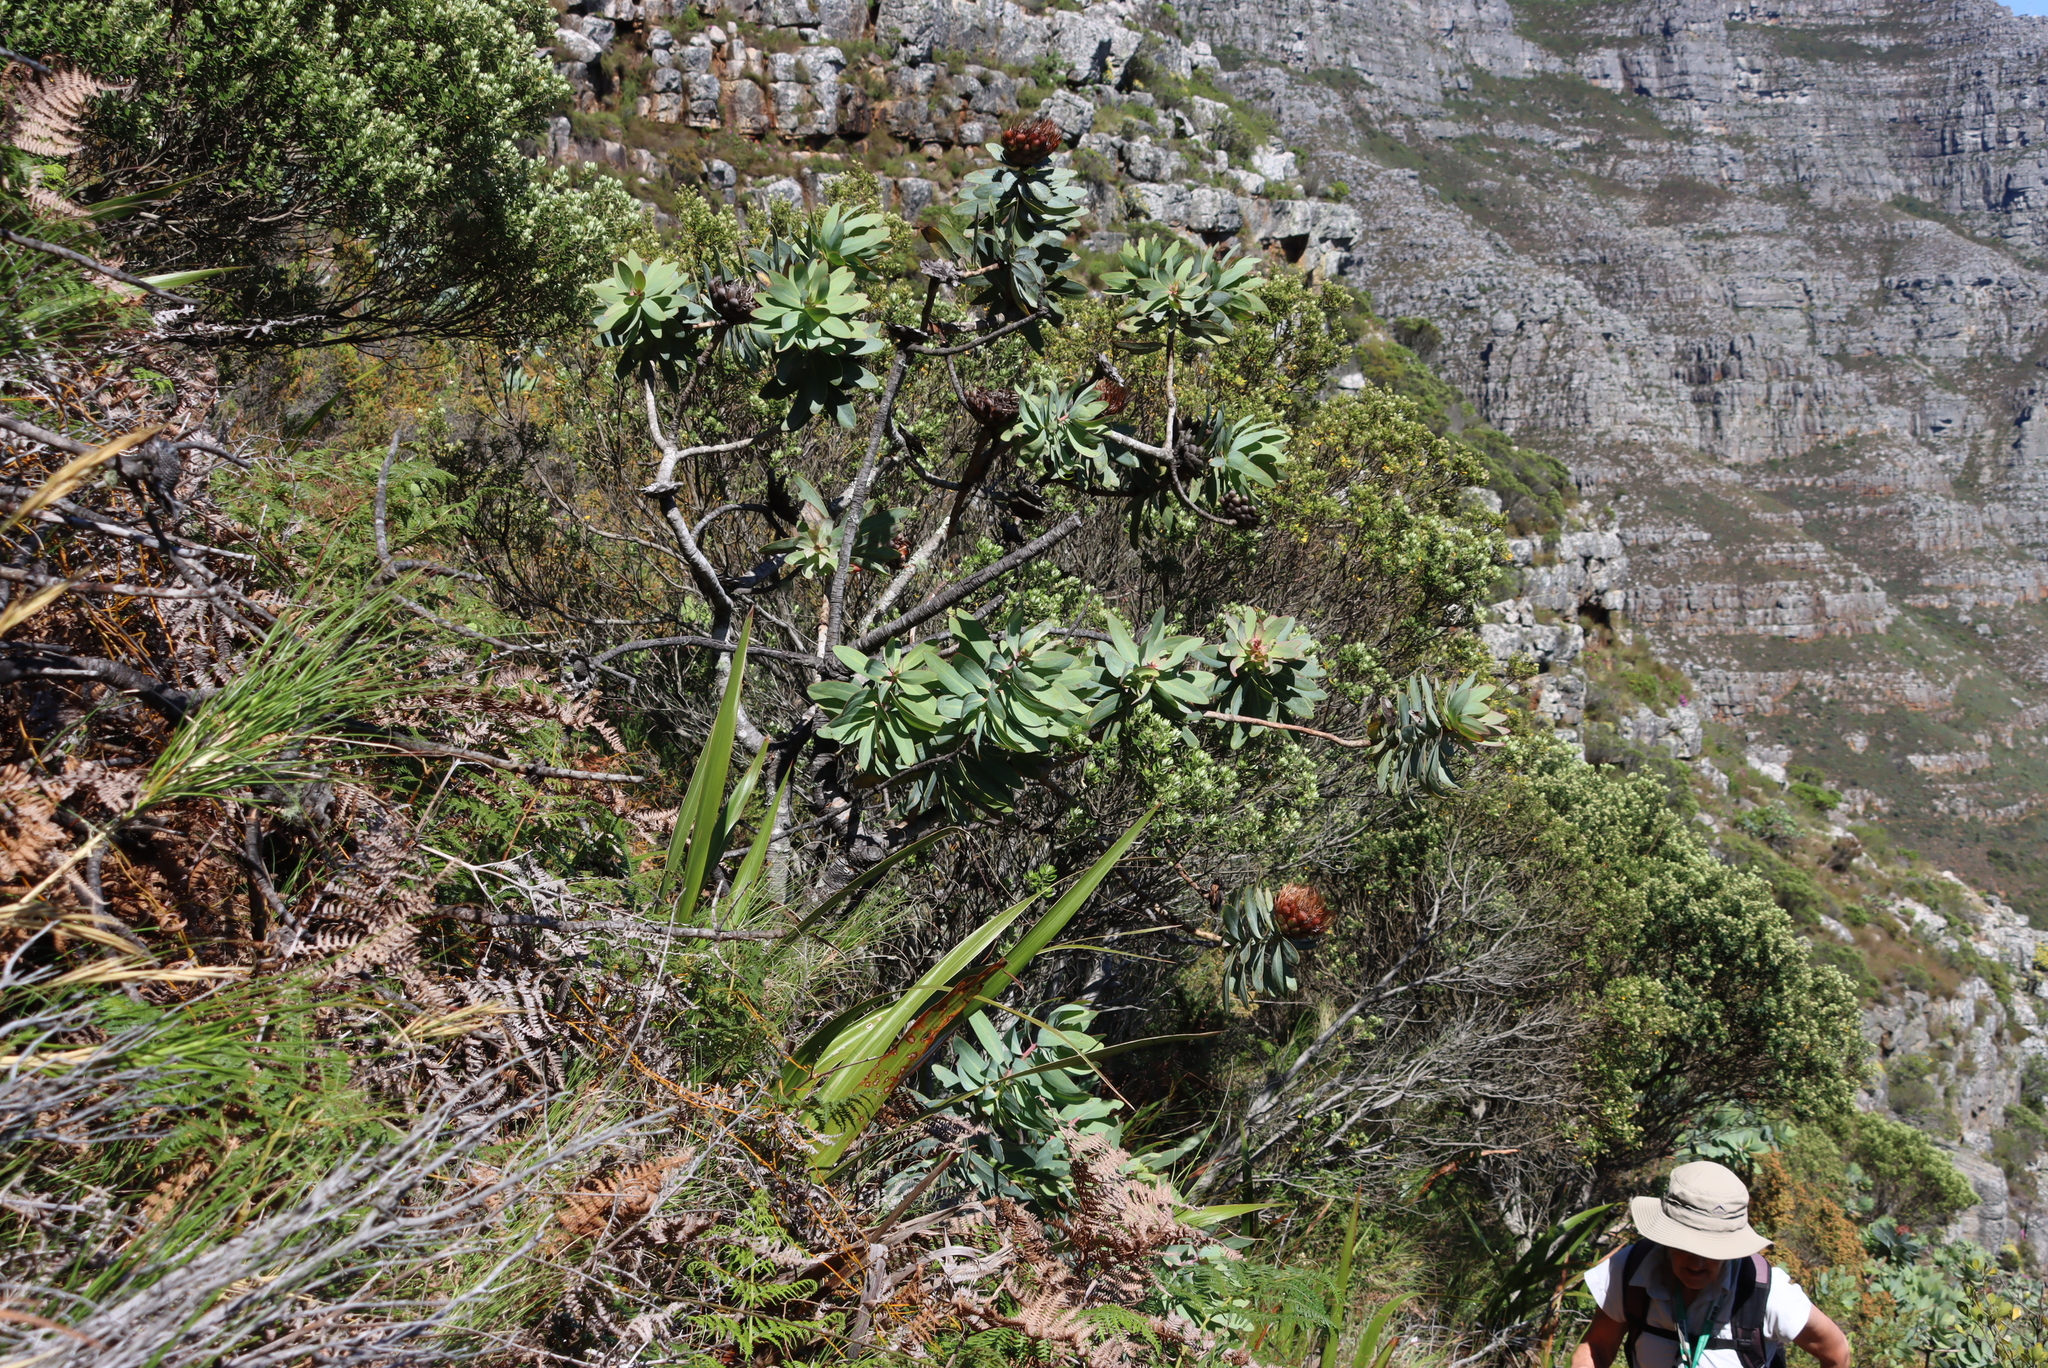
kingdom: Plantae
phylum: Tracheophyta
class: Magnoliopsida
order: Proteales
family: Proteaceae
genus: Protea
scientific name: Protea nitida
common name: Tree protea
